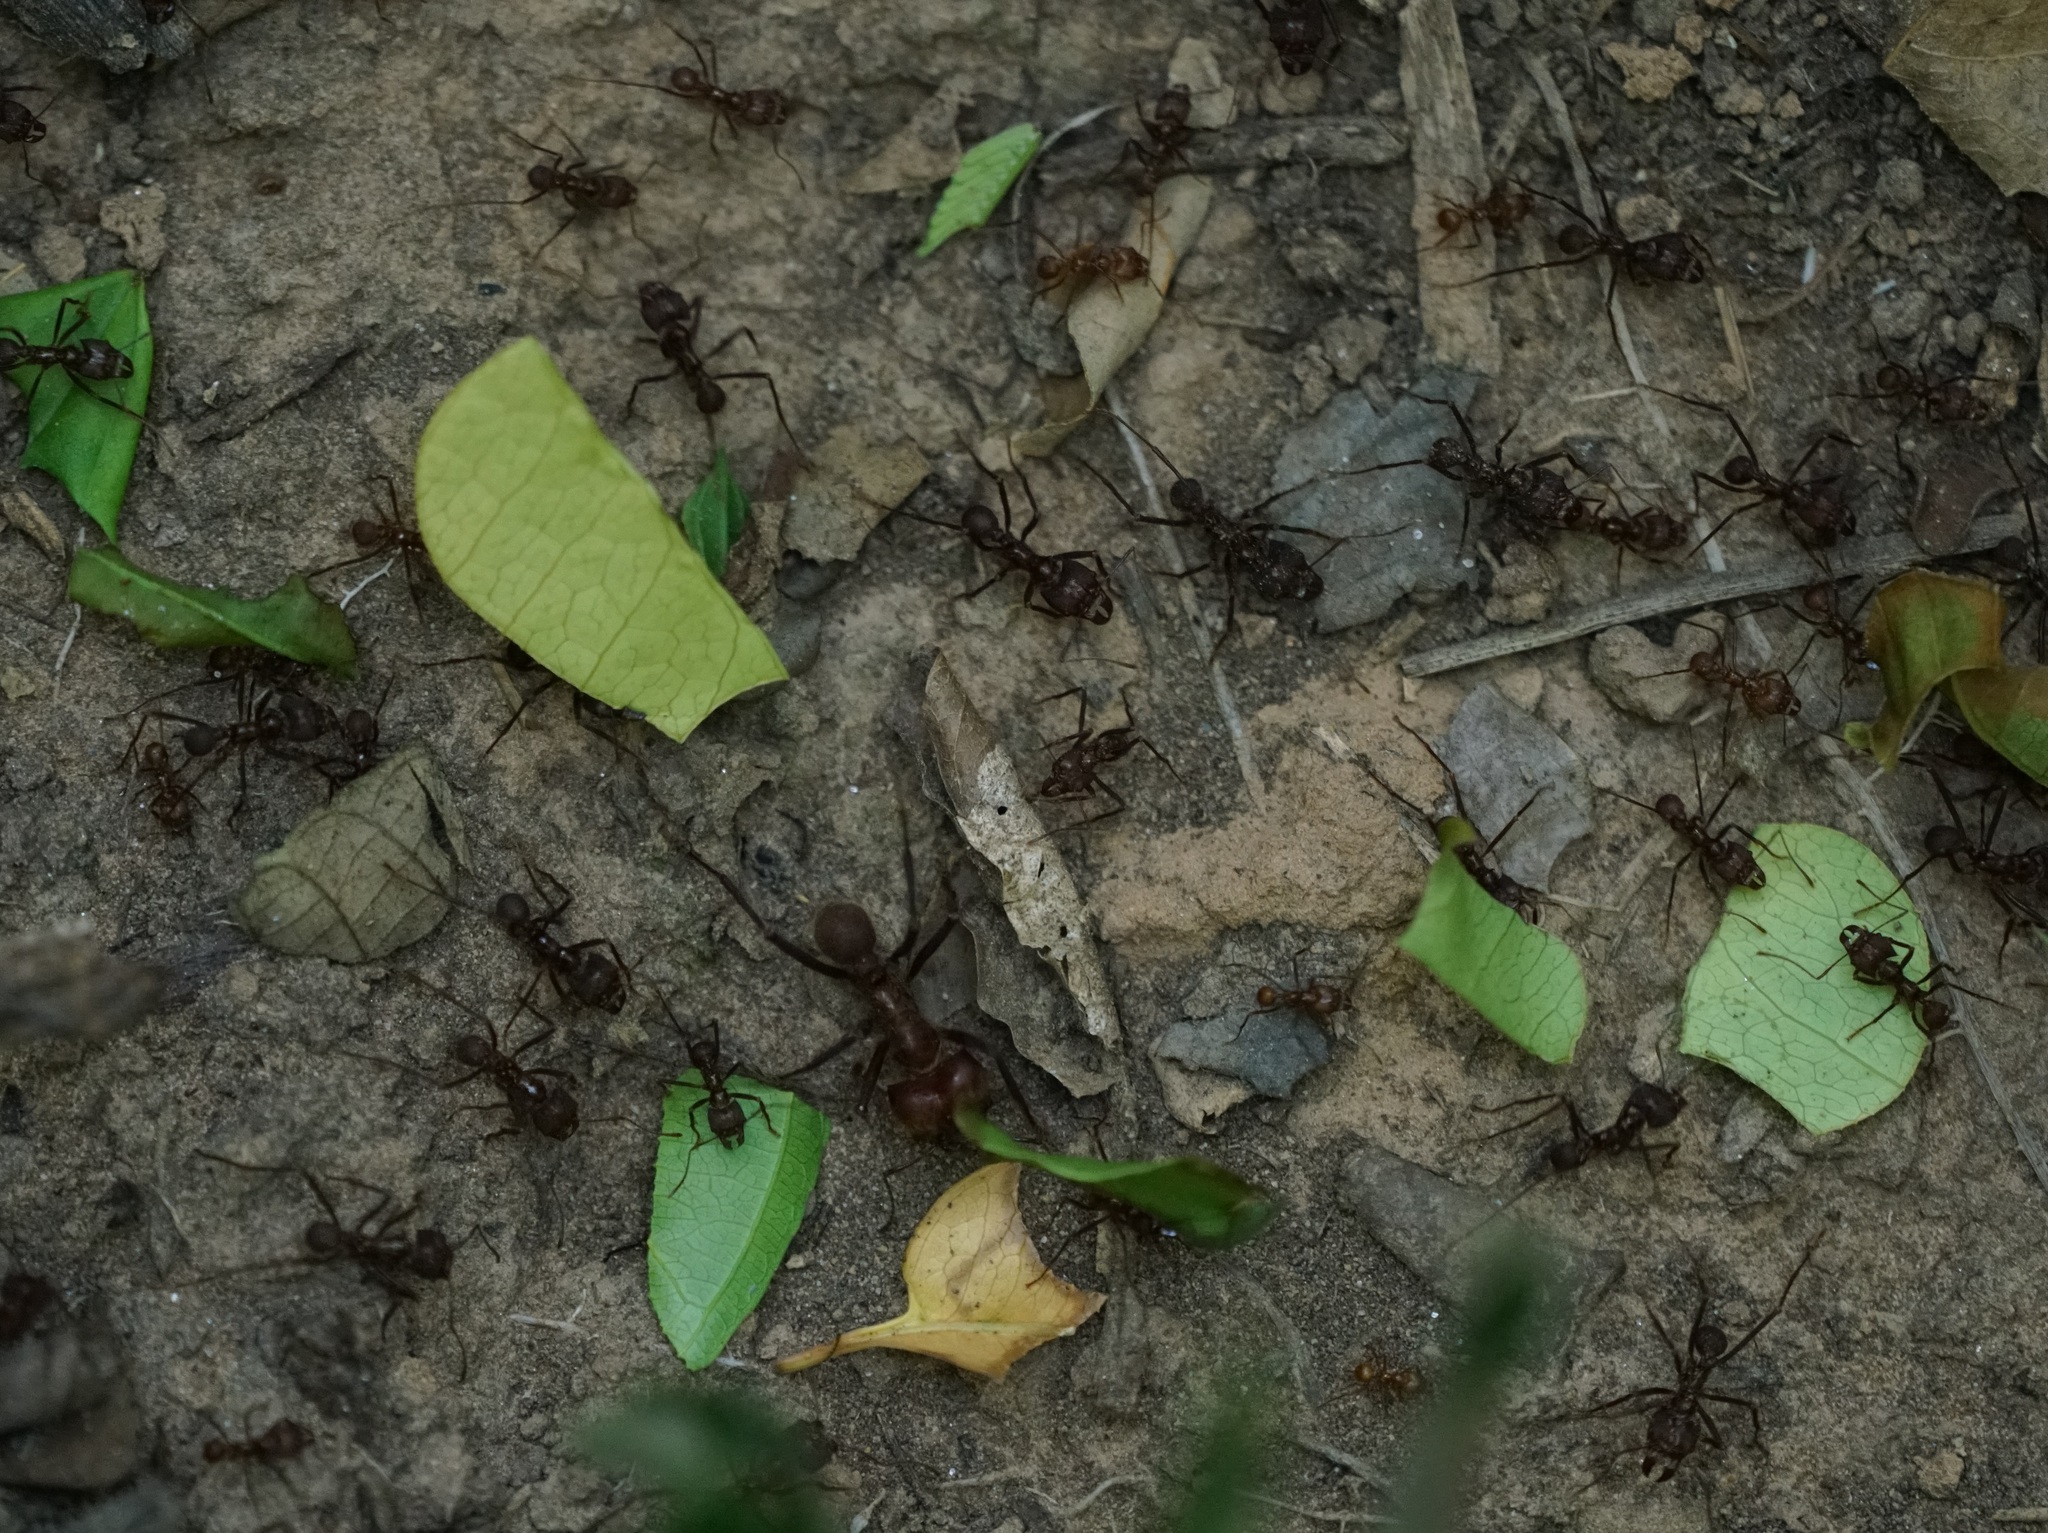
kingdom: Animalia
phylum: Arthropoda
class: Insecta
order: Hymenoptera
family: Formicidae
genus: Atta
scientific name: Atta cephalotes
